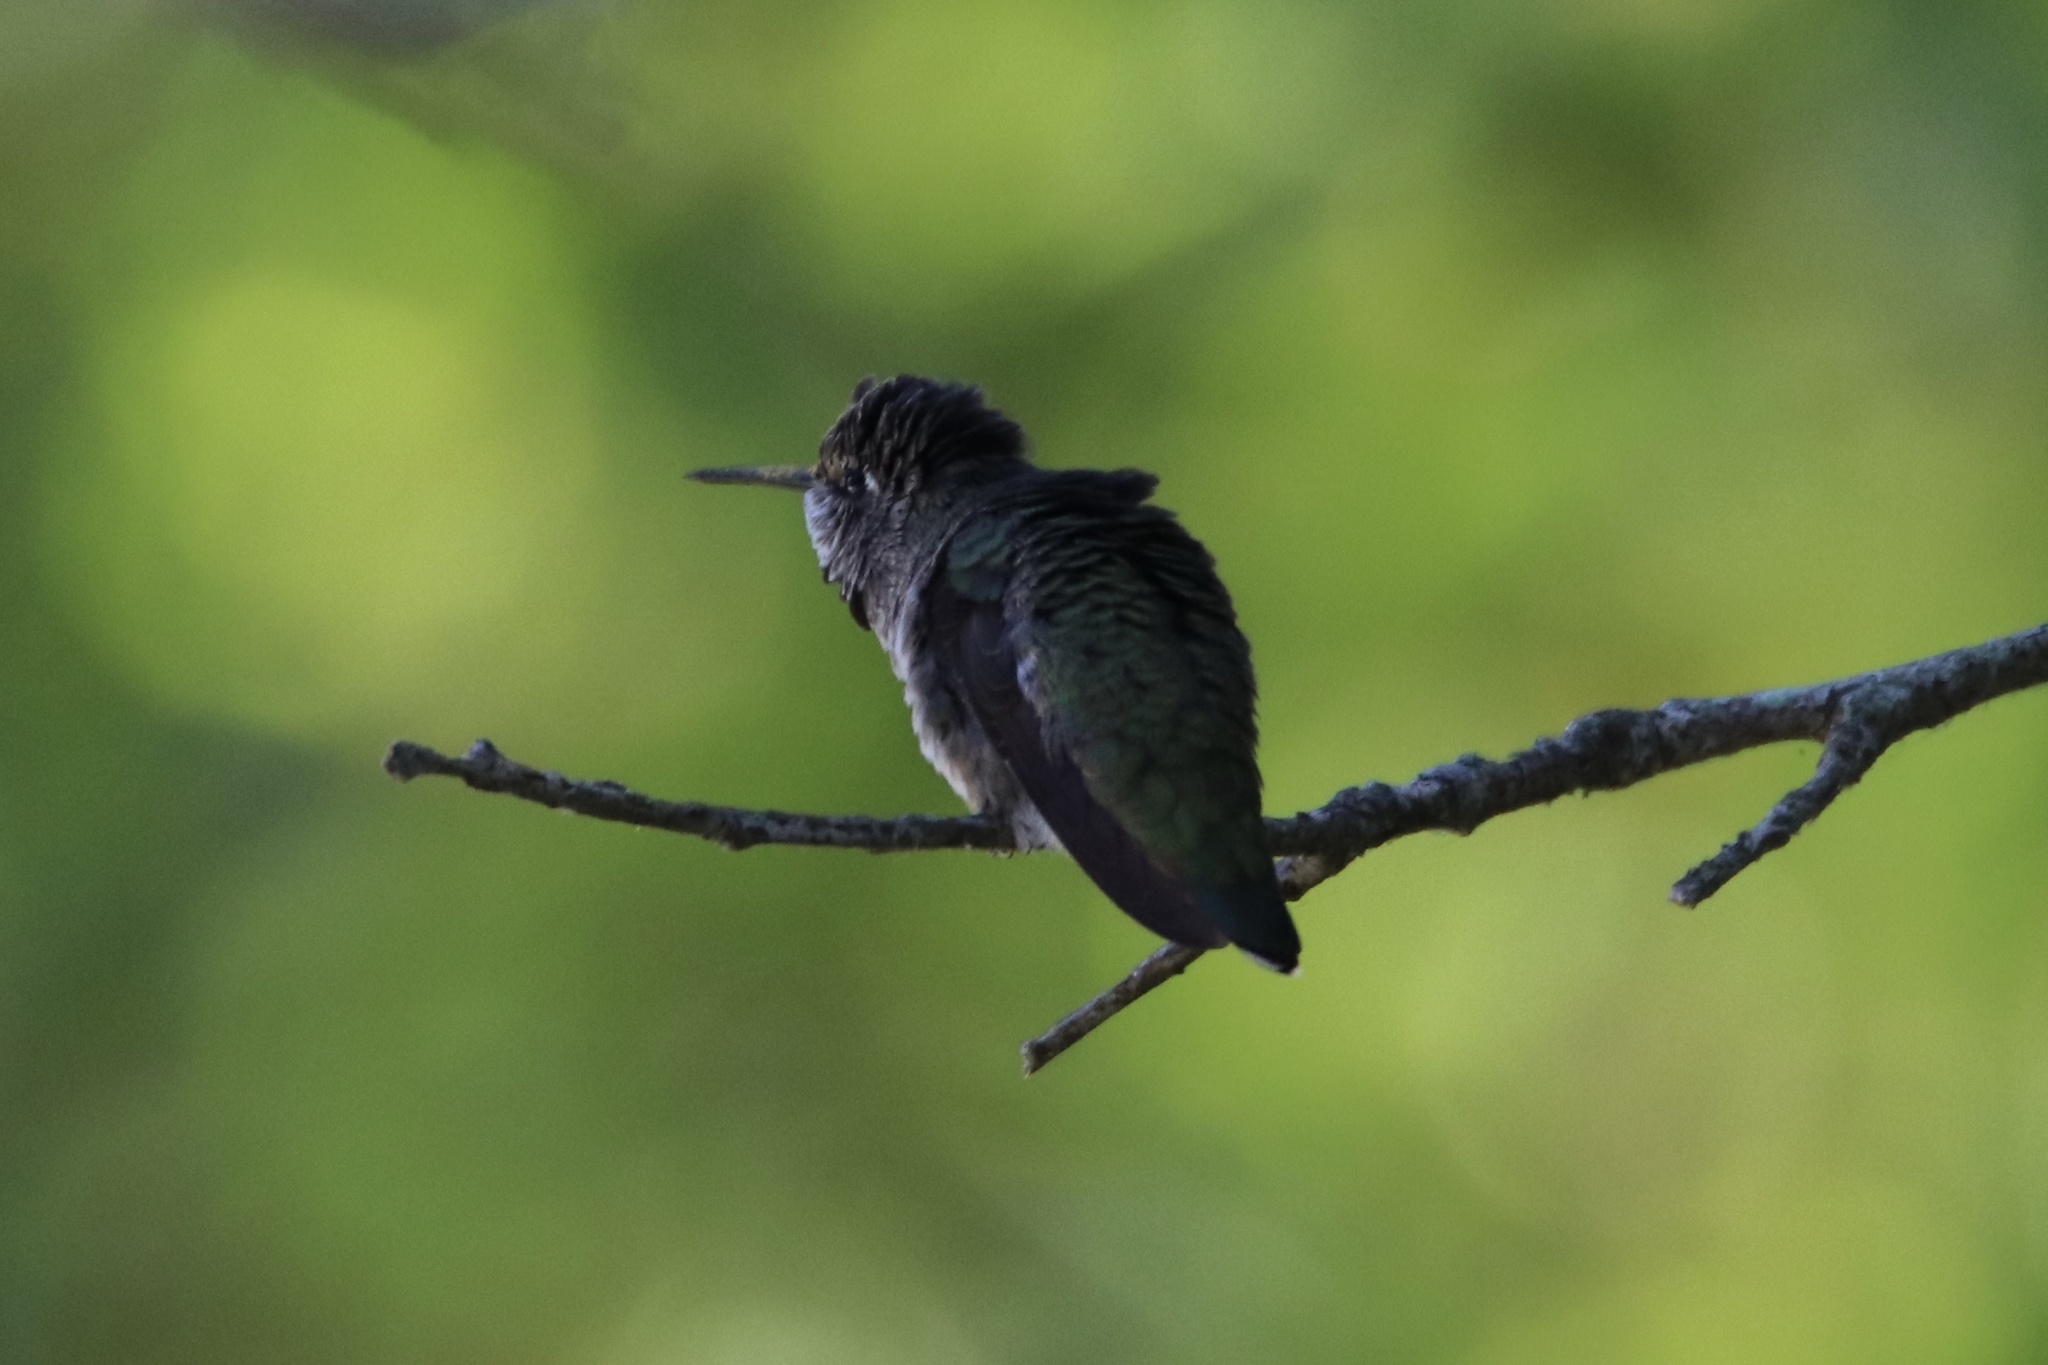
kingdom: Animalia
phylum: Chordata
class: Aves
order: Apodiformes
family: Trochilidae
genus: Calypte
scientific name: Calypte anna
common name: Anna's hummingbird
